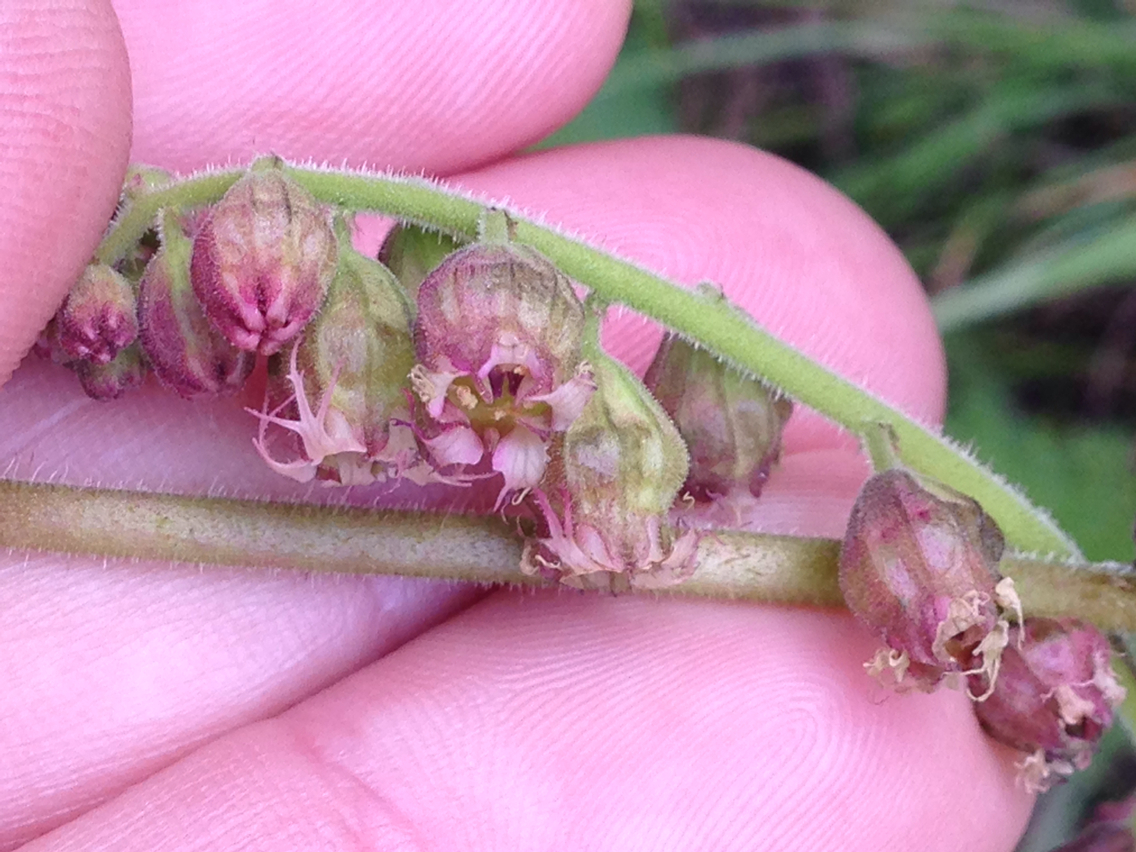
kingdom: Plantae
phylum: Tracheophyta
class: Magnoliopsida
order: Saxifragales
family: Saxifragaceae
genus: Tellima
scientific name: Tellima grandiflora
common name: Fringecups
